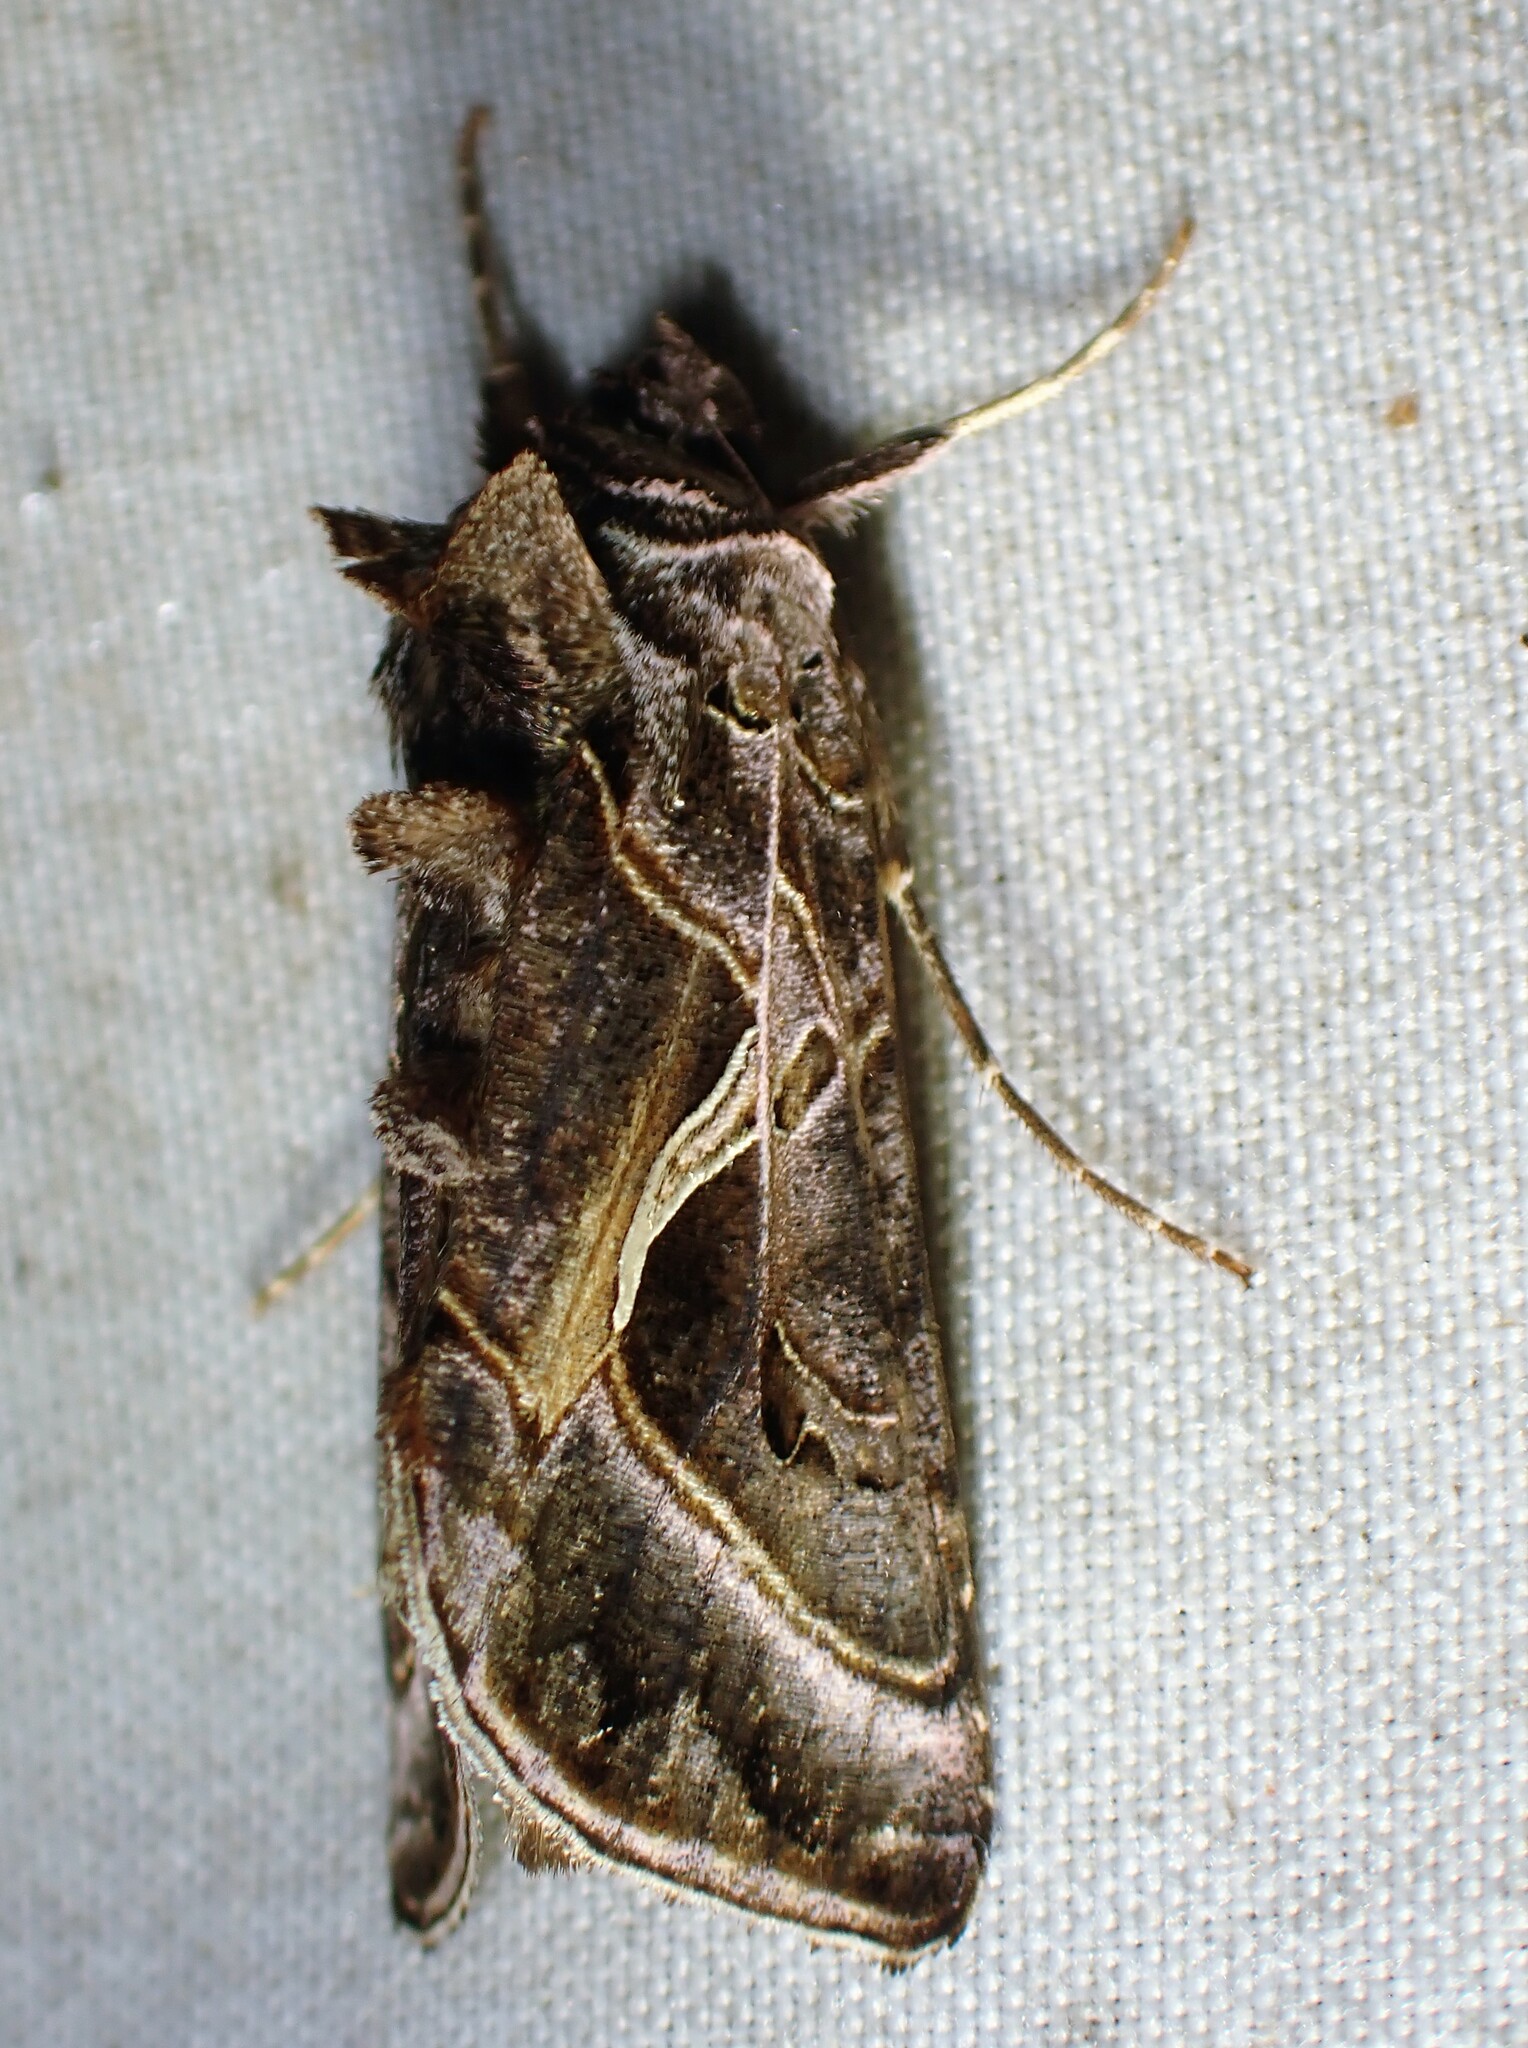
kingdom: Animalia
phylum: Arthropoda
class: Insecta
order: Lepidoptera
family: Noctuidae
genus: Autographa
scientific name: Autographa flagellum
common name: Silver whip moth
